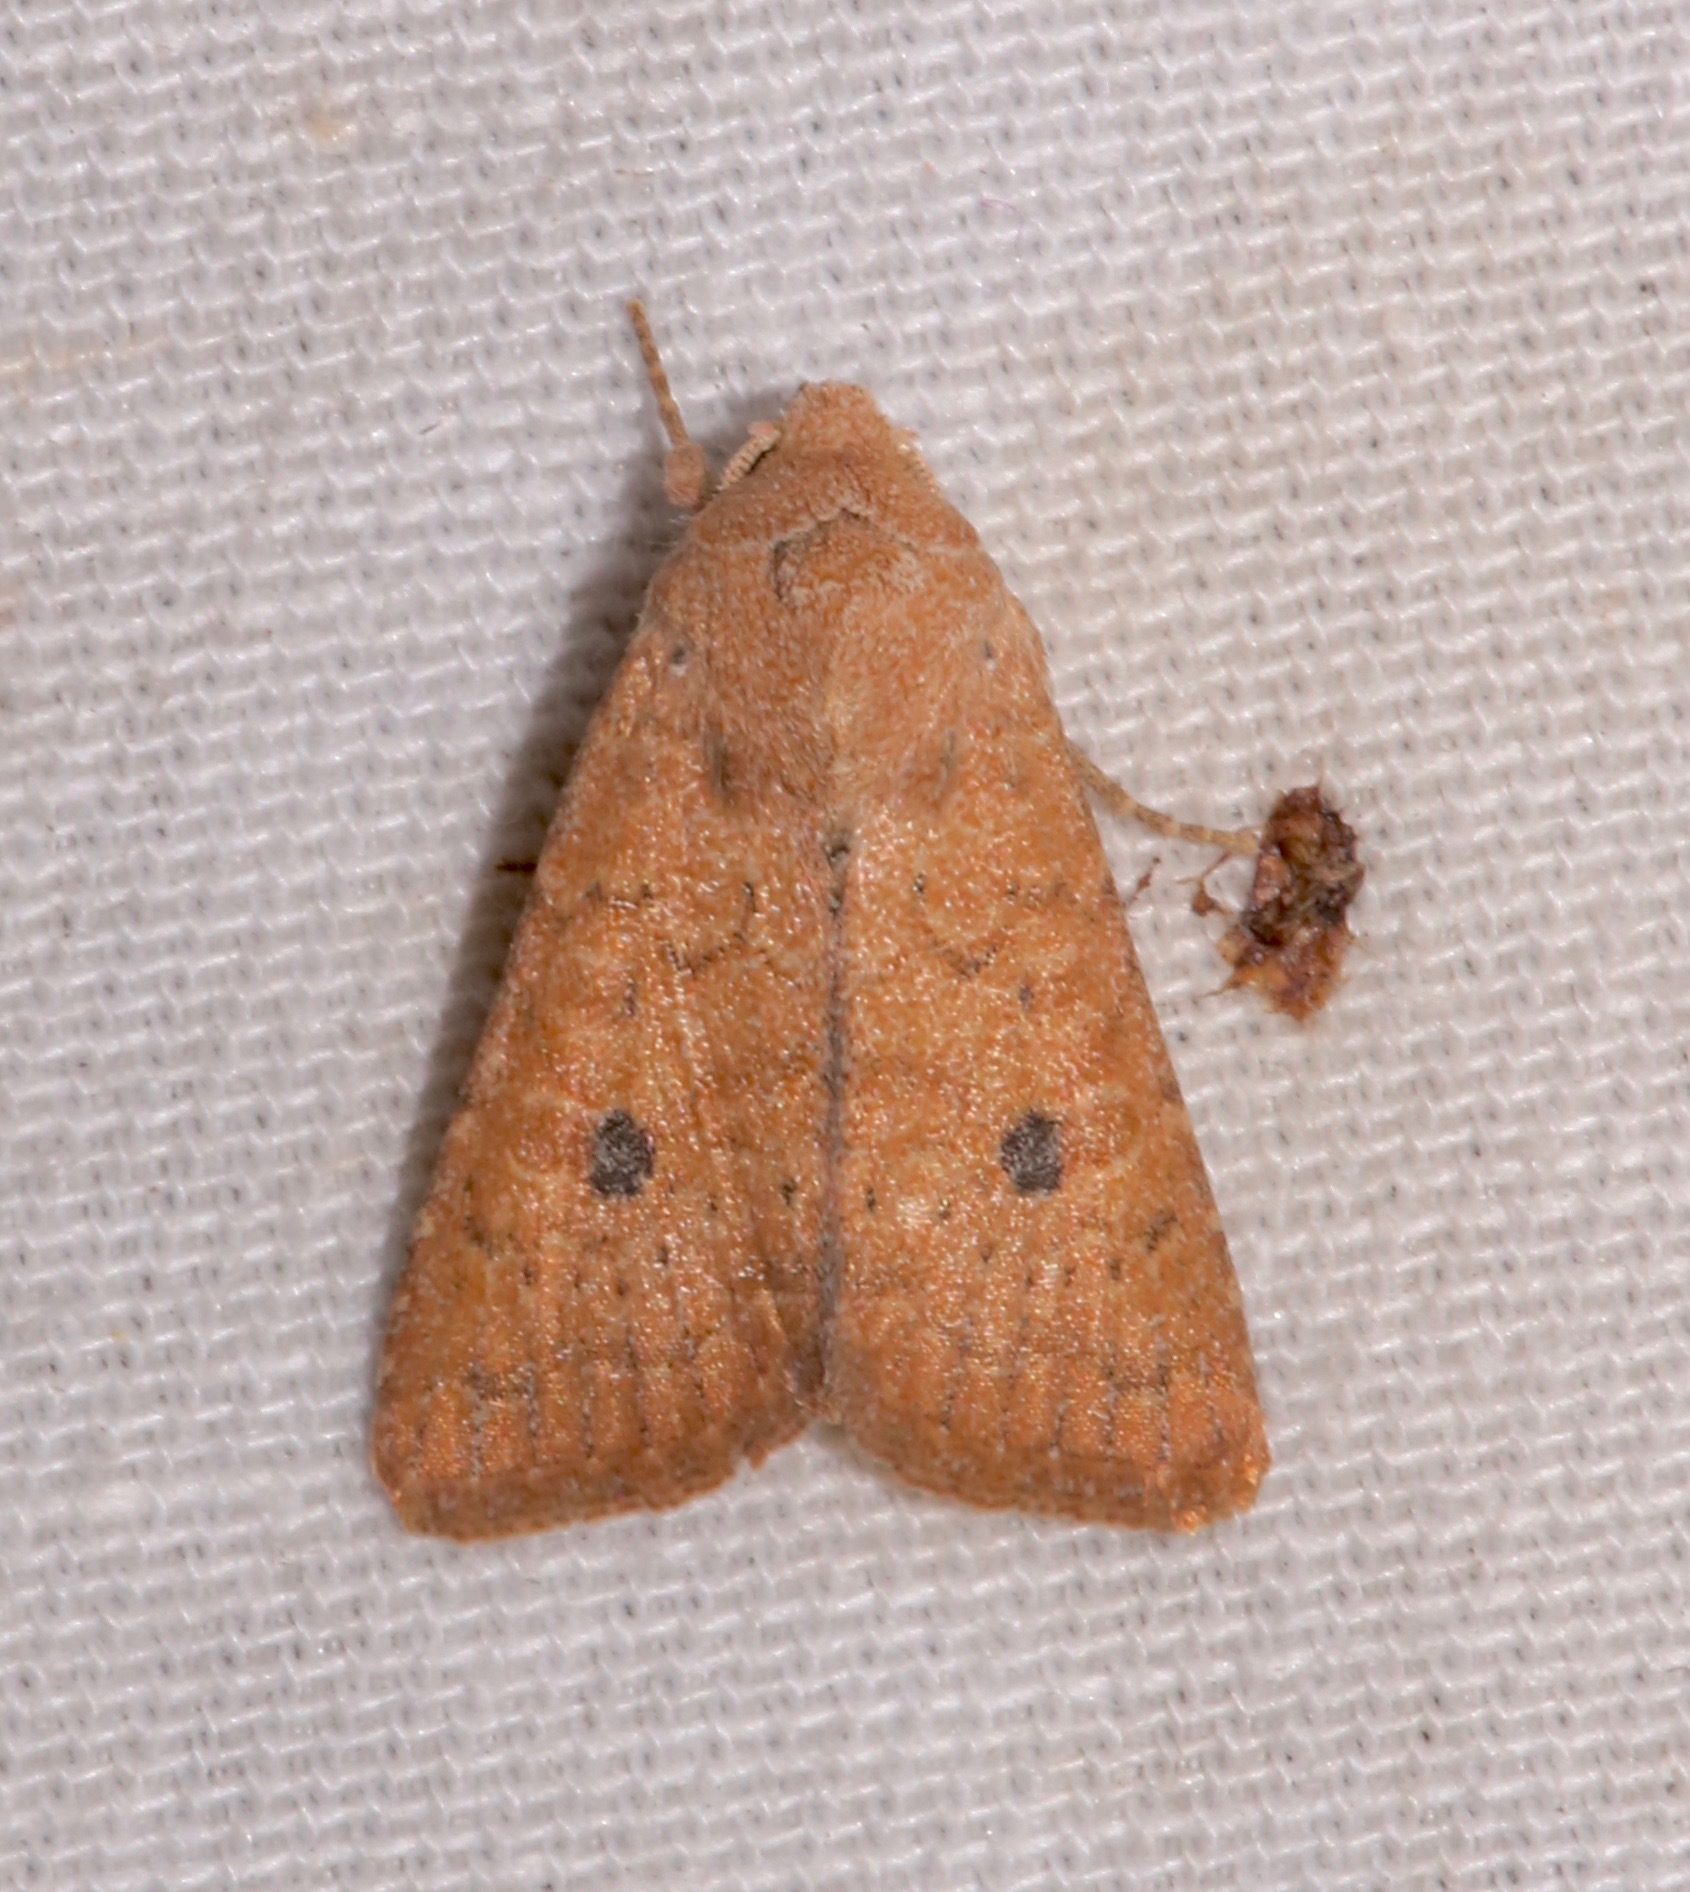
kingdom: Animalia
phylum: Arthropoda
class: Insecta
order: Lepidoptera
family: Noctuidae
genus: Trichopolia
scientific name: Trichopolia
